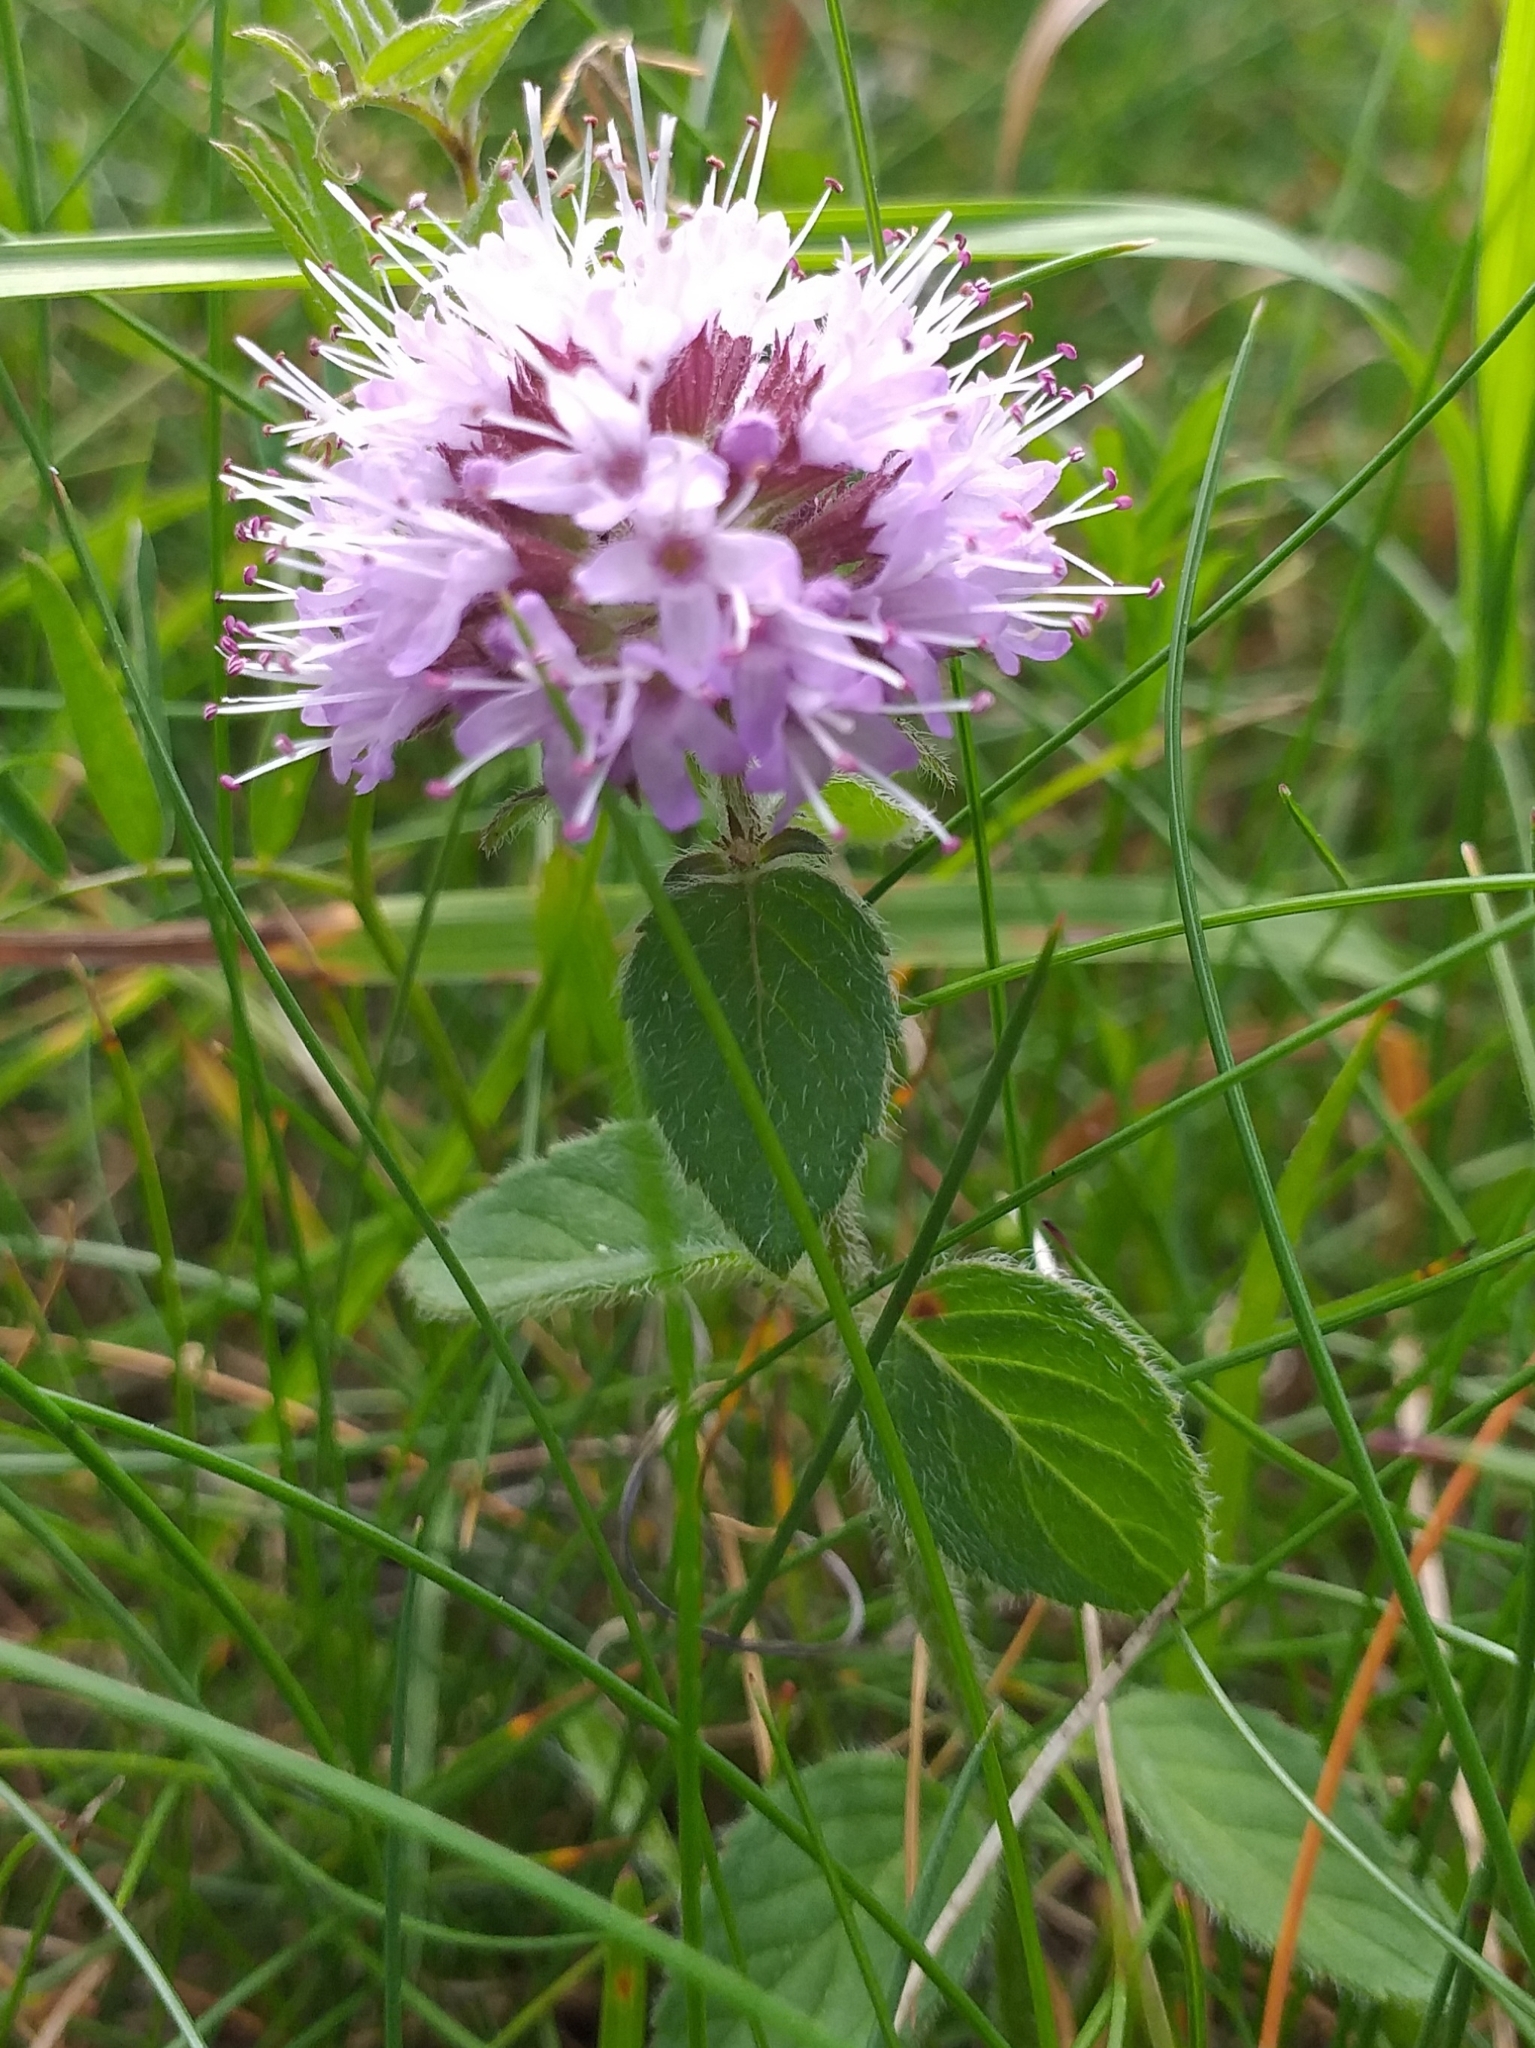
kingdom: Plantae
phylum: Tracheophyta
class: Magnoliopsida
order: Lamiales
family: Lamiaceae
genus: Mentha
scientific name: Mentha aquatica
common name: Water mint
